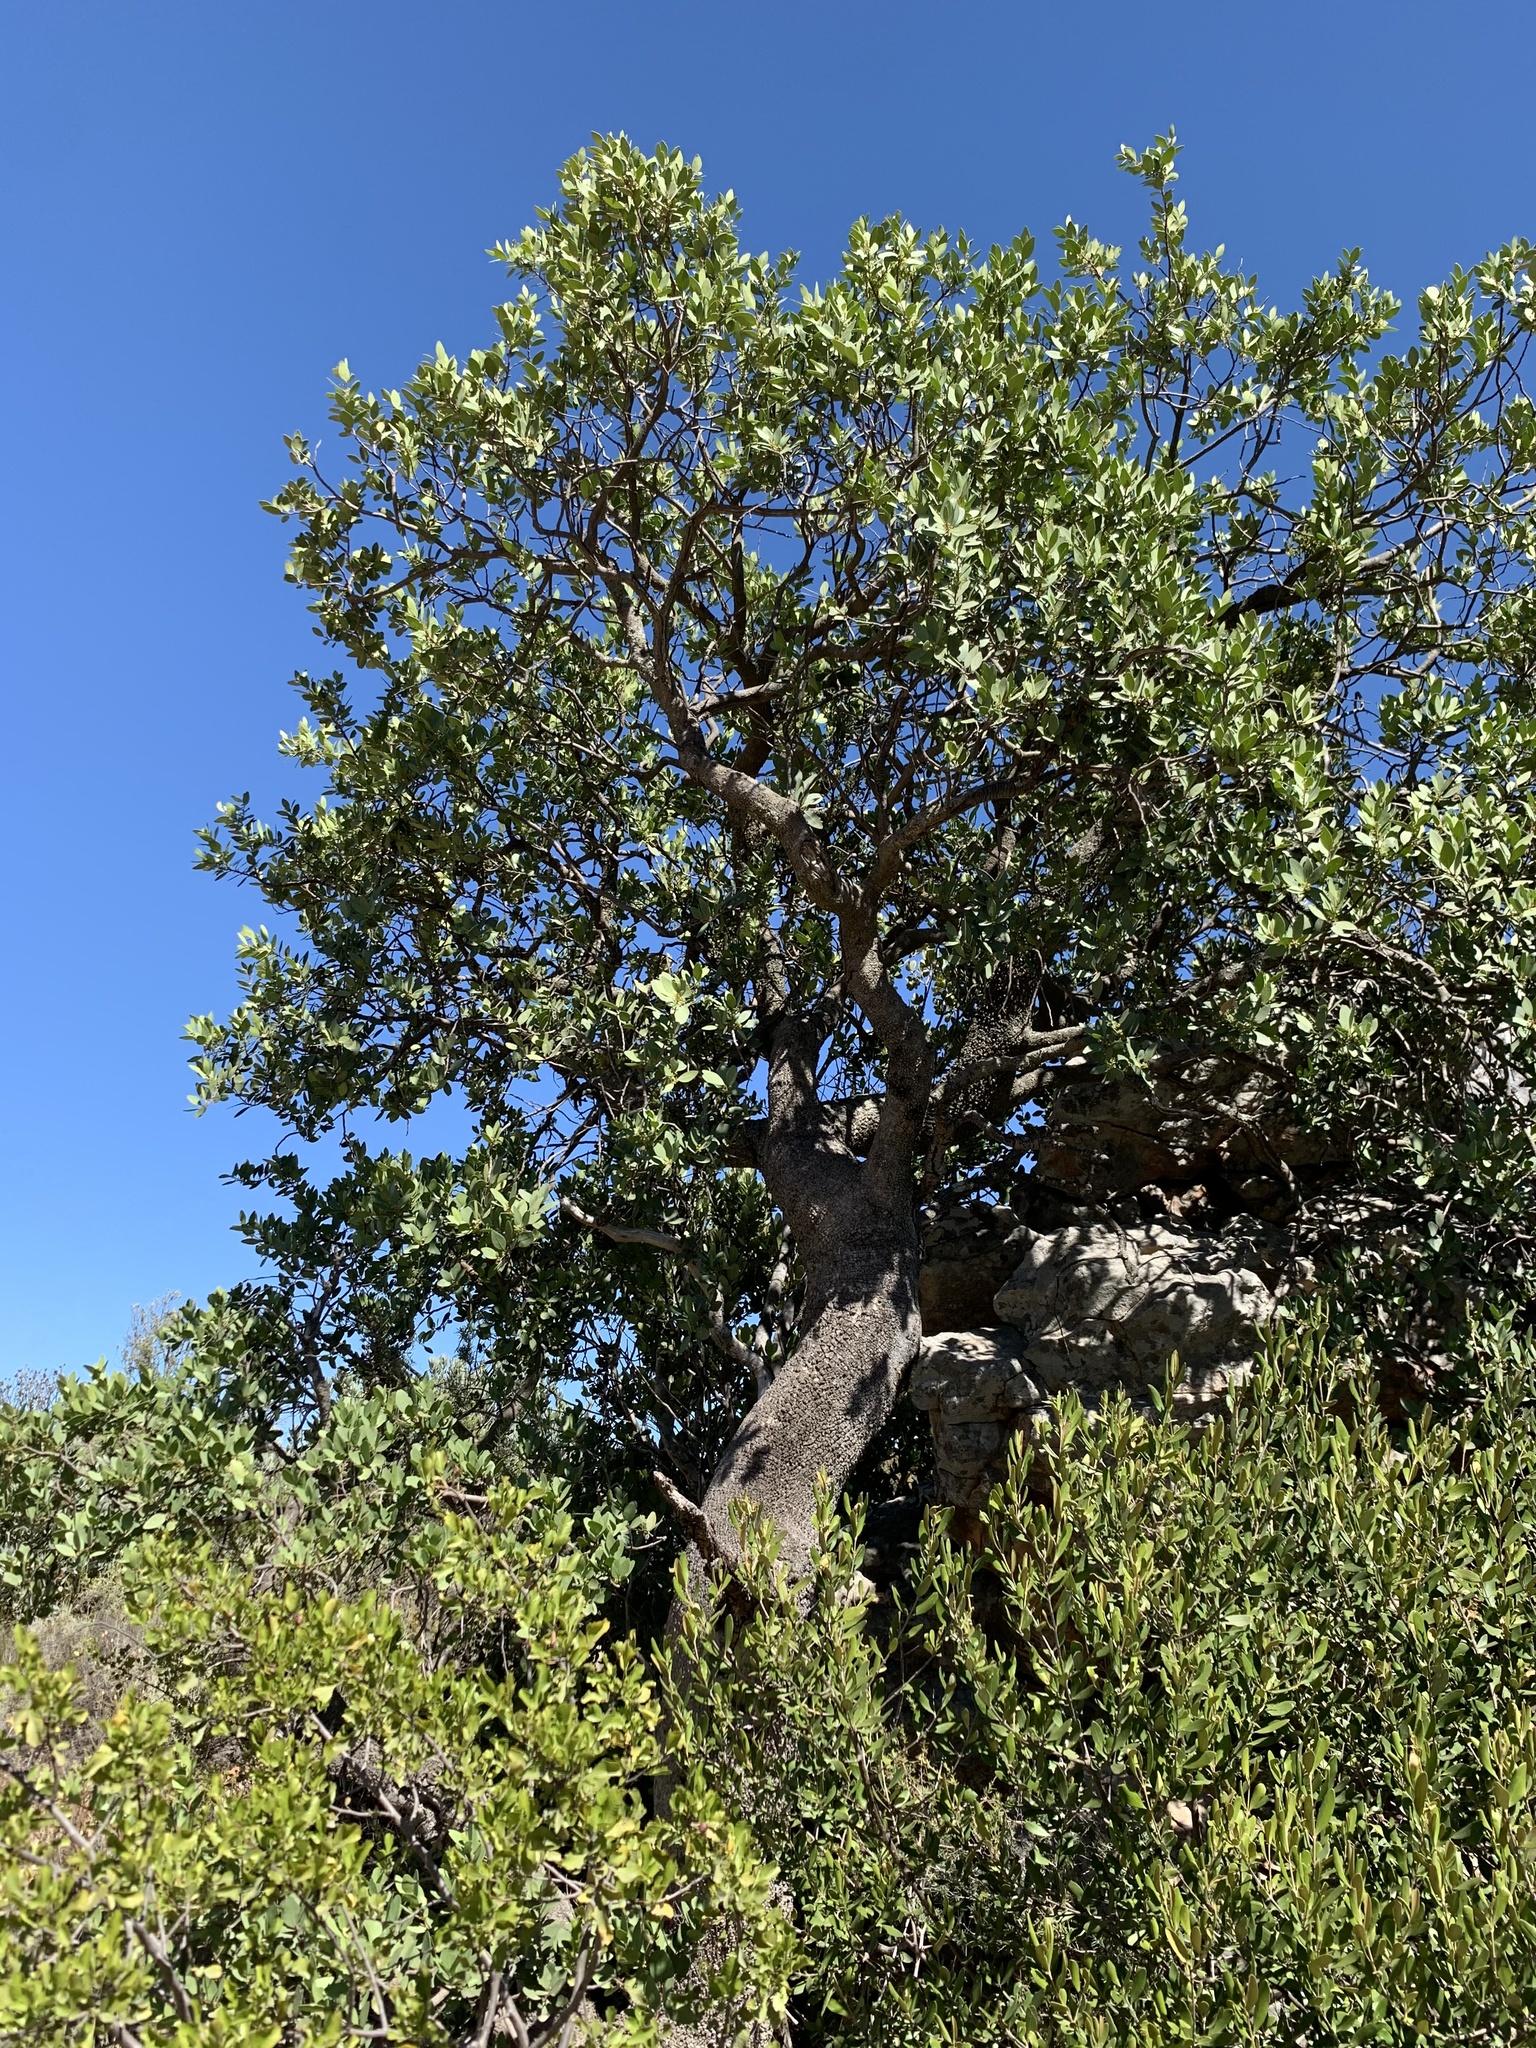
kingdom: Plantae
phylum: Tracheophyta
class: Magnoliopsida
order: Celastrales
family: Celastraceae
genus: Gymnosporia
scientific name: Gymnosporia laurina
